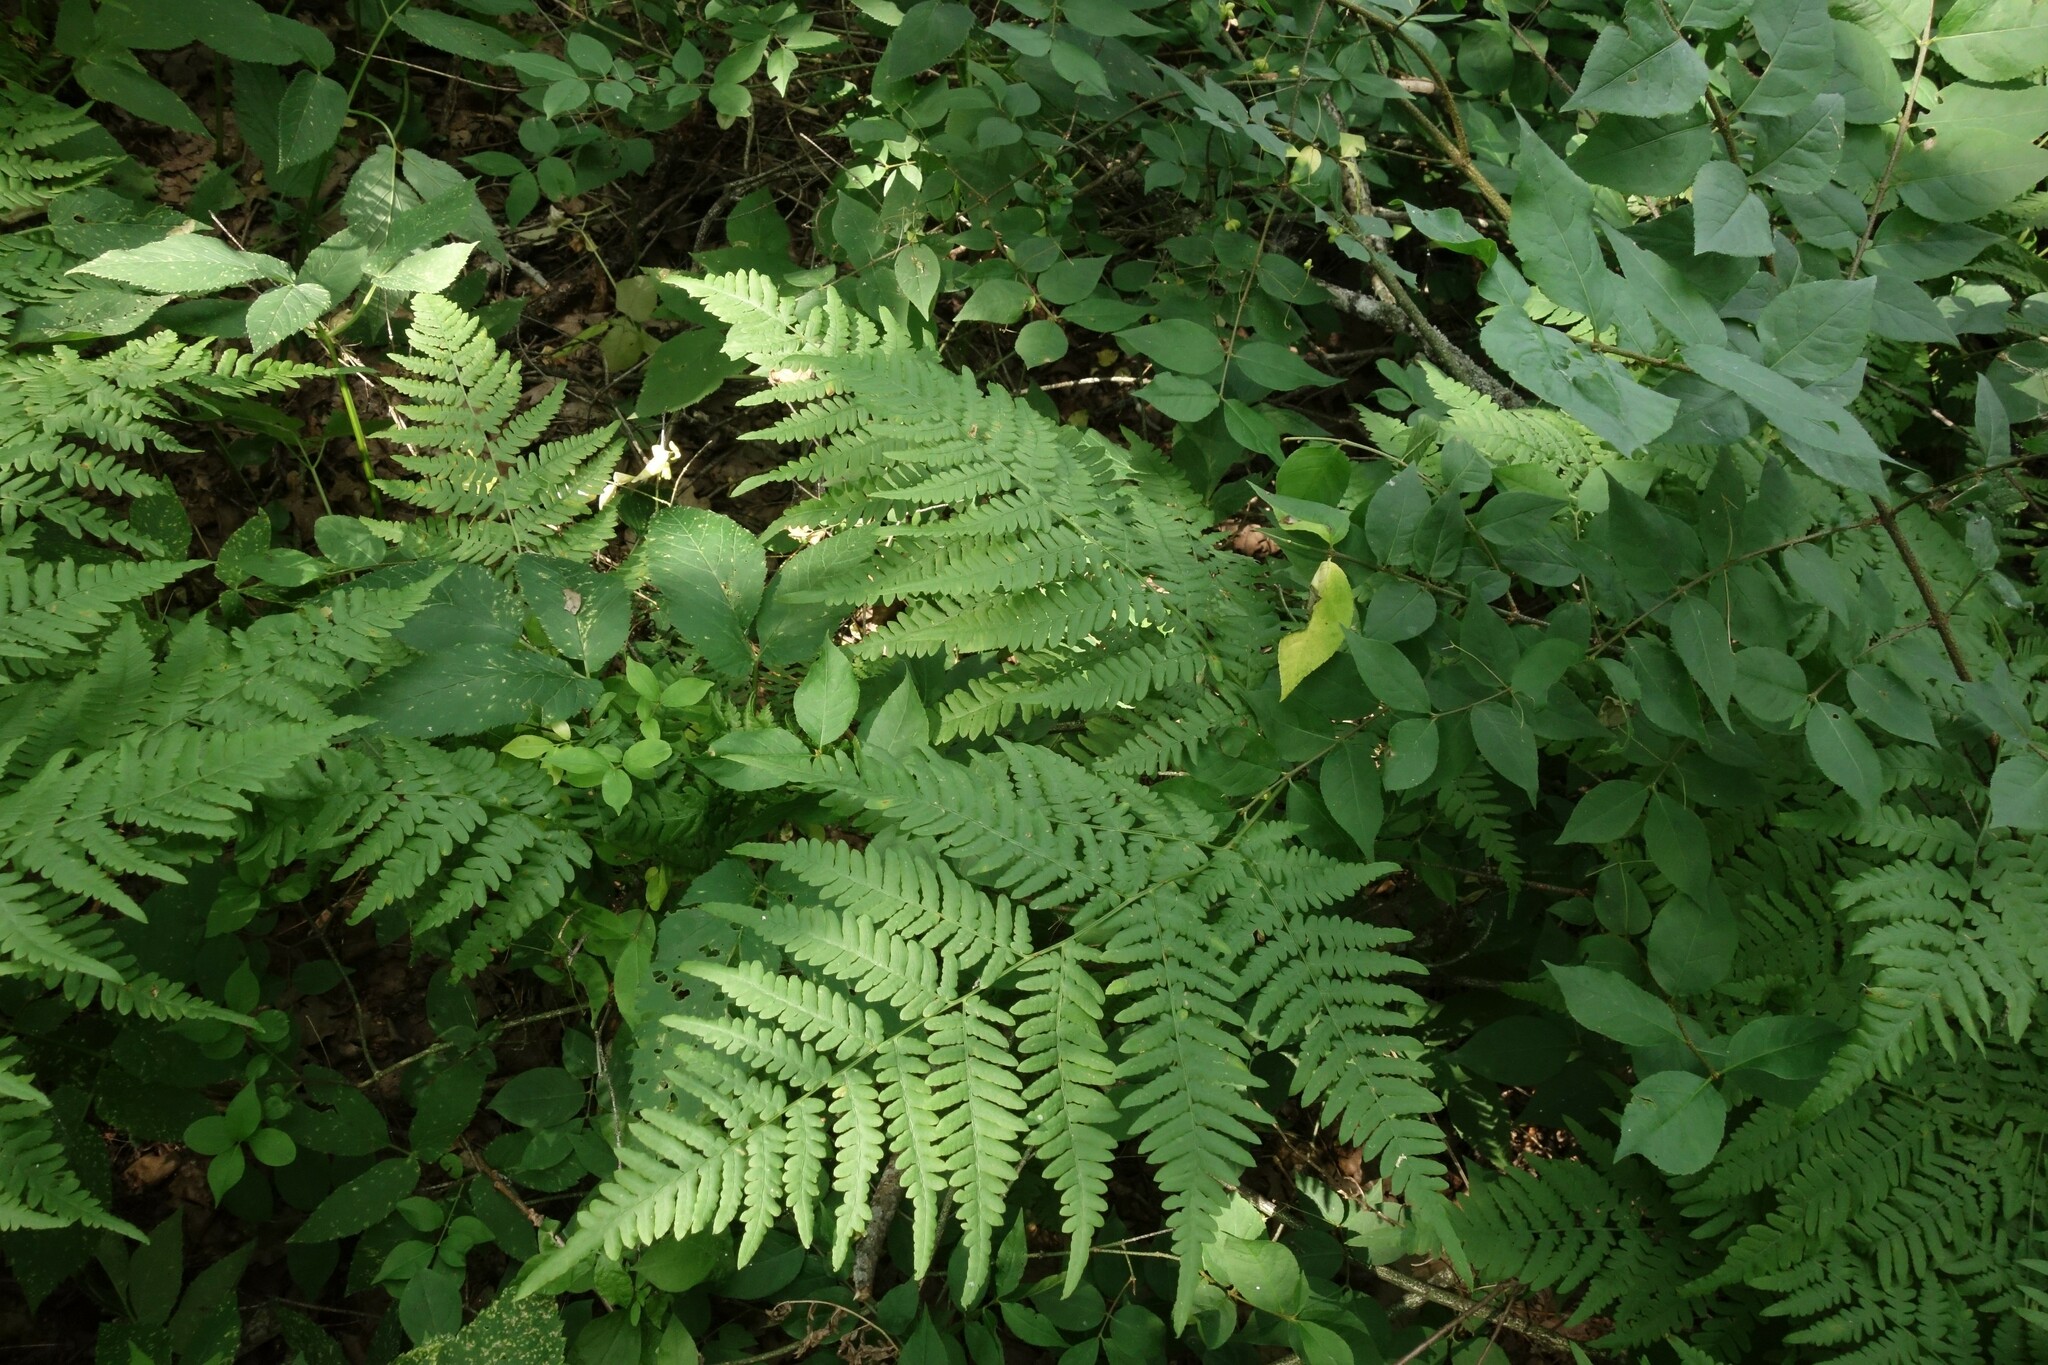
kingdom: Plantae
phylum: Tracheophyta
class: Polypodiopsida
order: Polypodiales
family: Dennstaedtiaceae
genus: Pteridium
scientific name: Pteridium aquilinum
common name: Bracken
